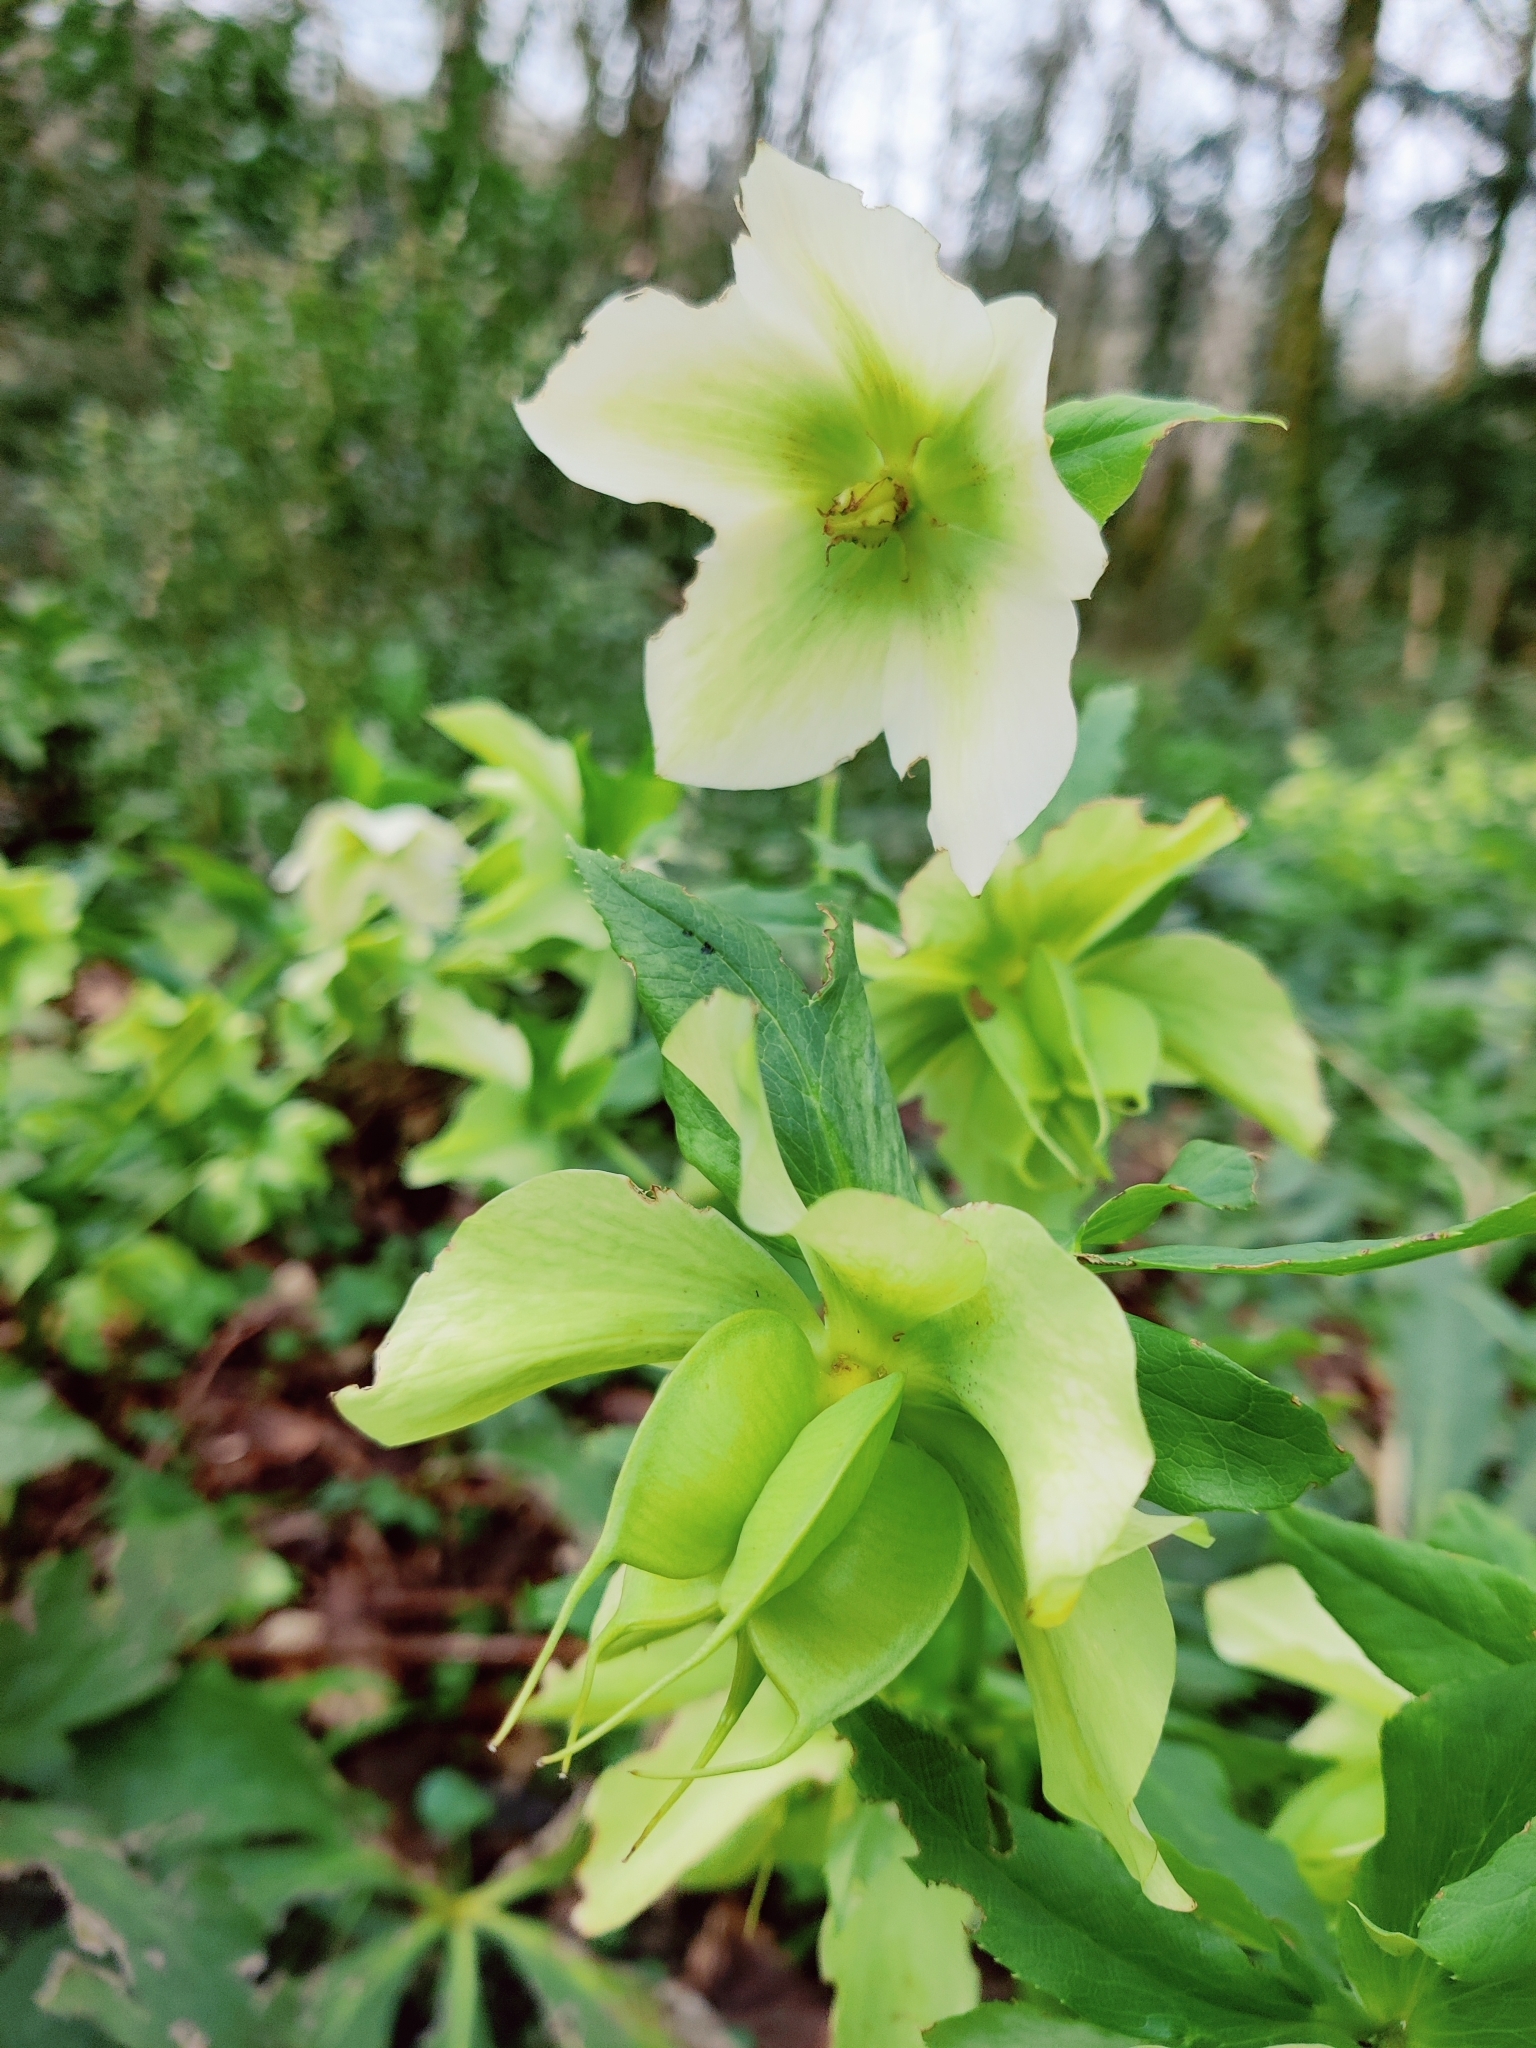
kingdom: Plantae
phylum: Tracheophyta
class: Magnoliopsida
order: Ranunculales
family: Ranunculaceae
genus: Helleborus
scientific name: Helleborus orientalis
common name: Lenten-rose
